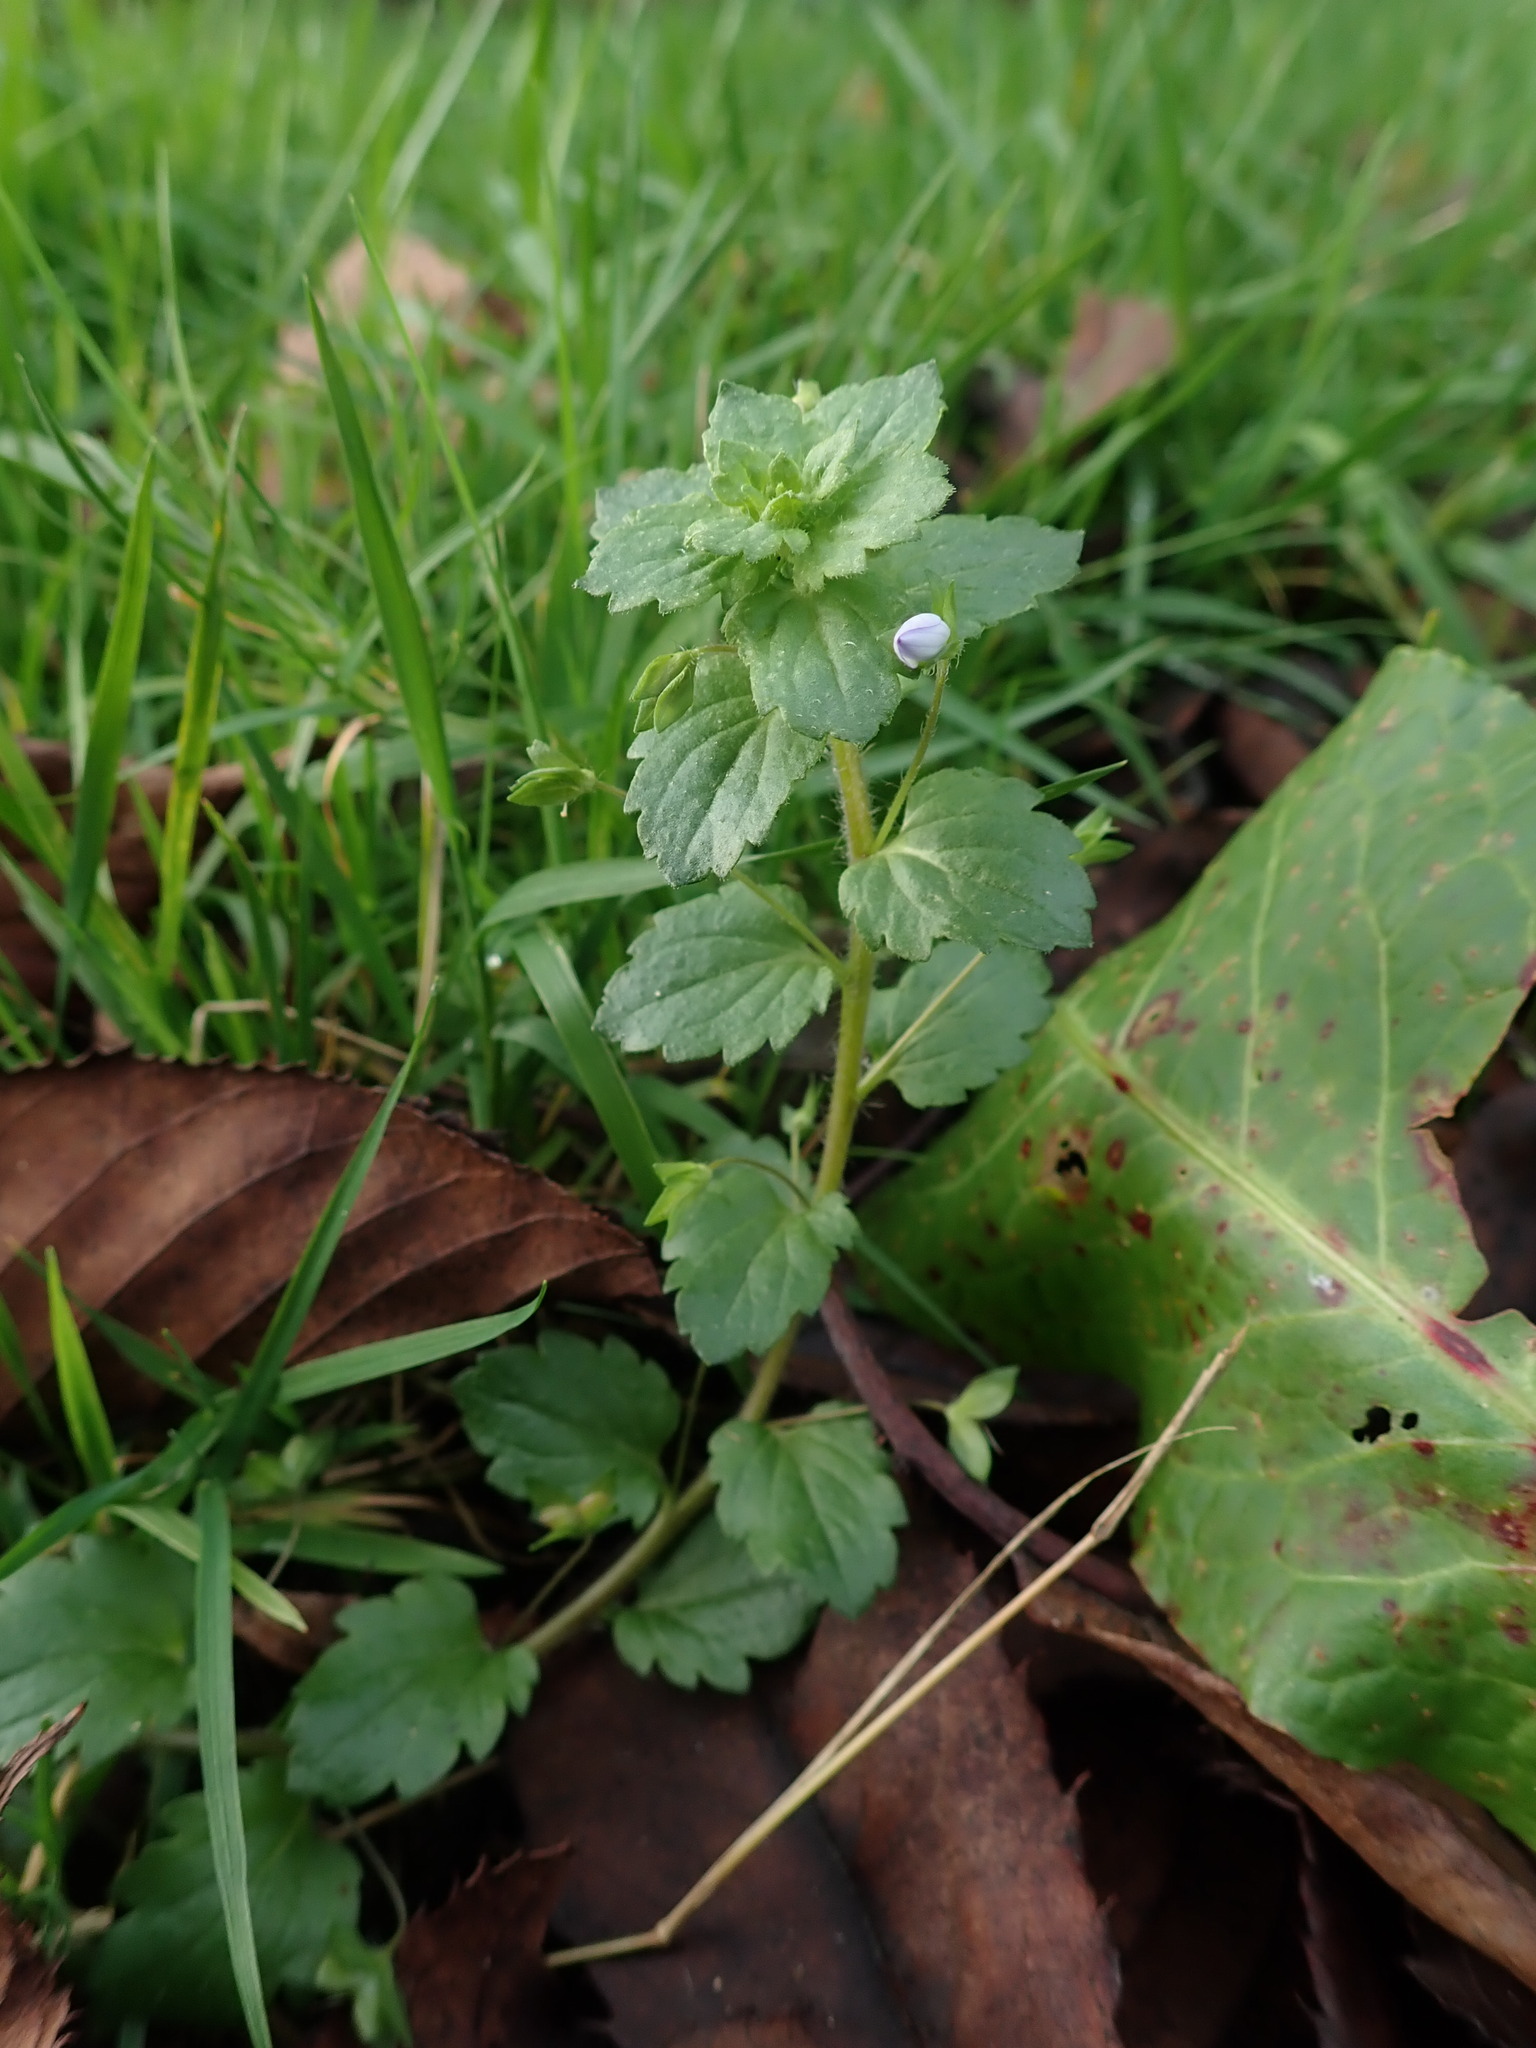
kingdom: Plantae
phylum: Tracheophyta
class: Magnoliopsida
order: Lamiales
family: Plantaginaceae
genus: Veronica
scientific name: Veronica persica
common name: Common field-speedwell
